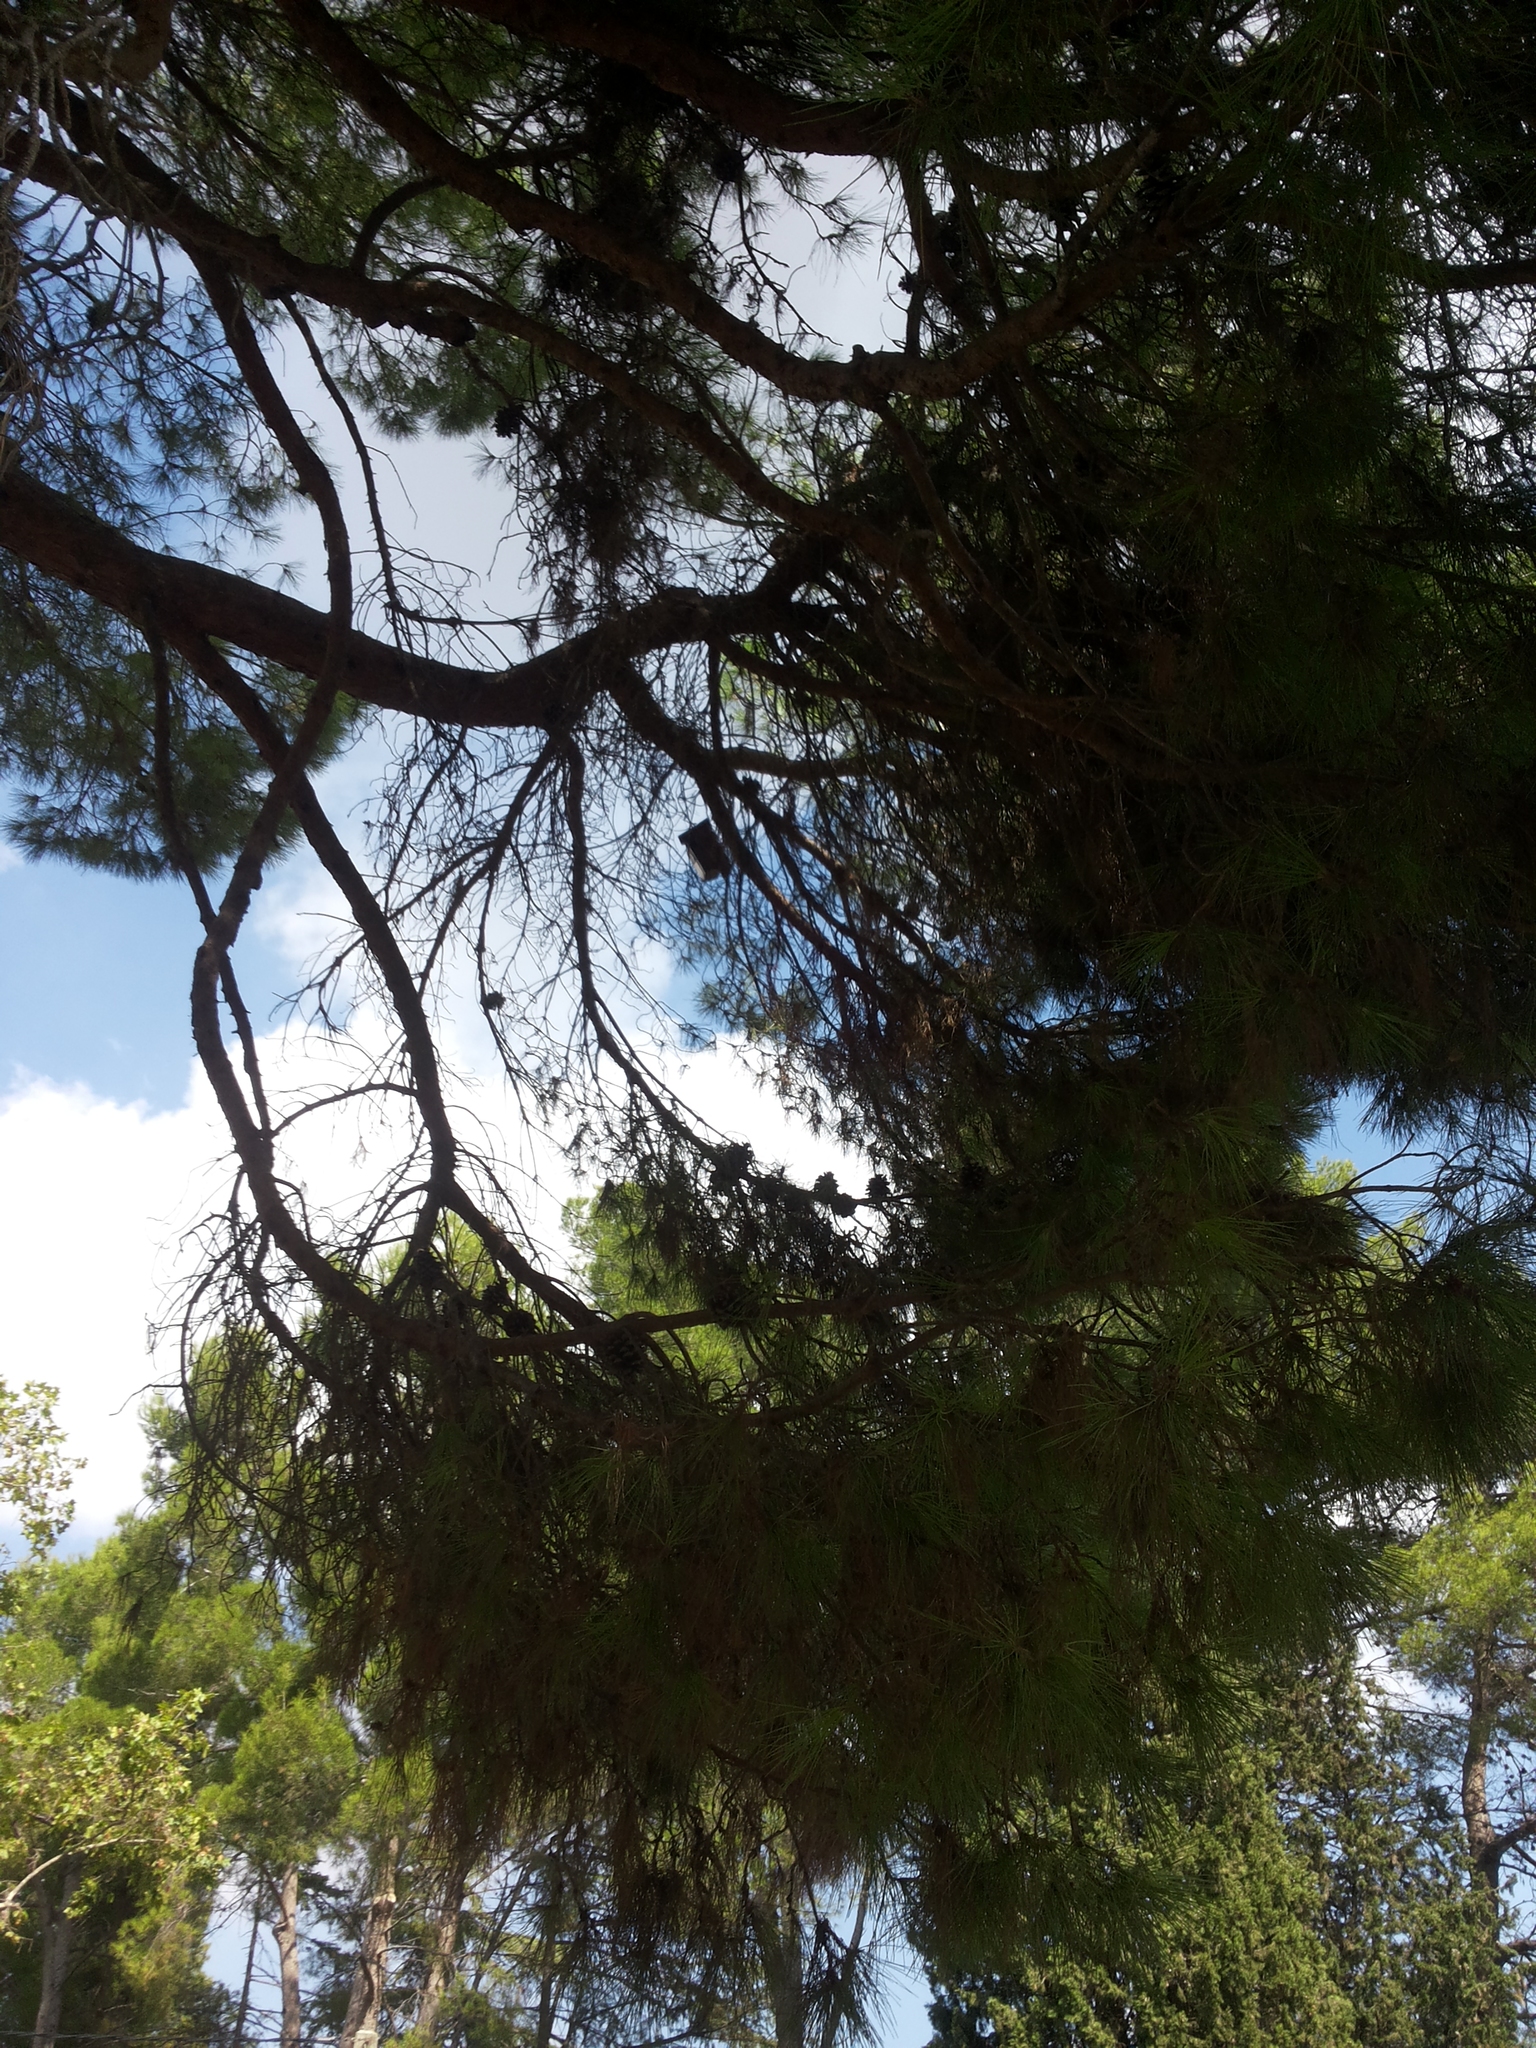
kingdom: Plantae
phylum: Tracheophyta
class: Pinopsida
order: Pinales
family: Pinaceae
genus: Pinus
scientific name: Pinus pinea
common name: Italian stone pine
